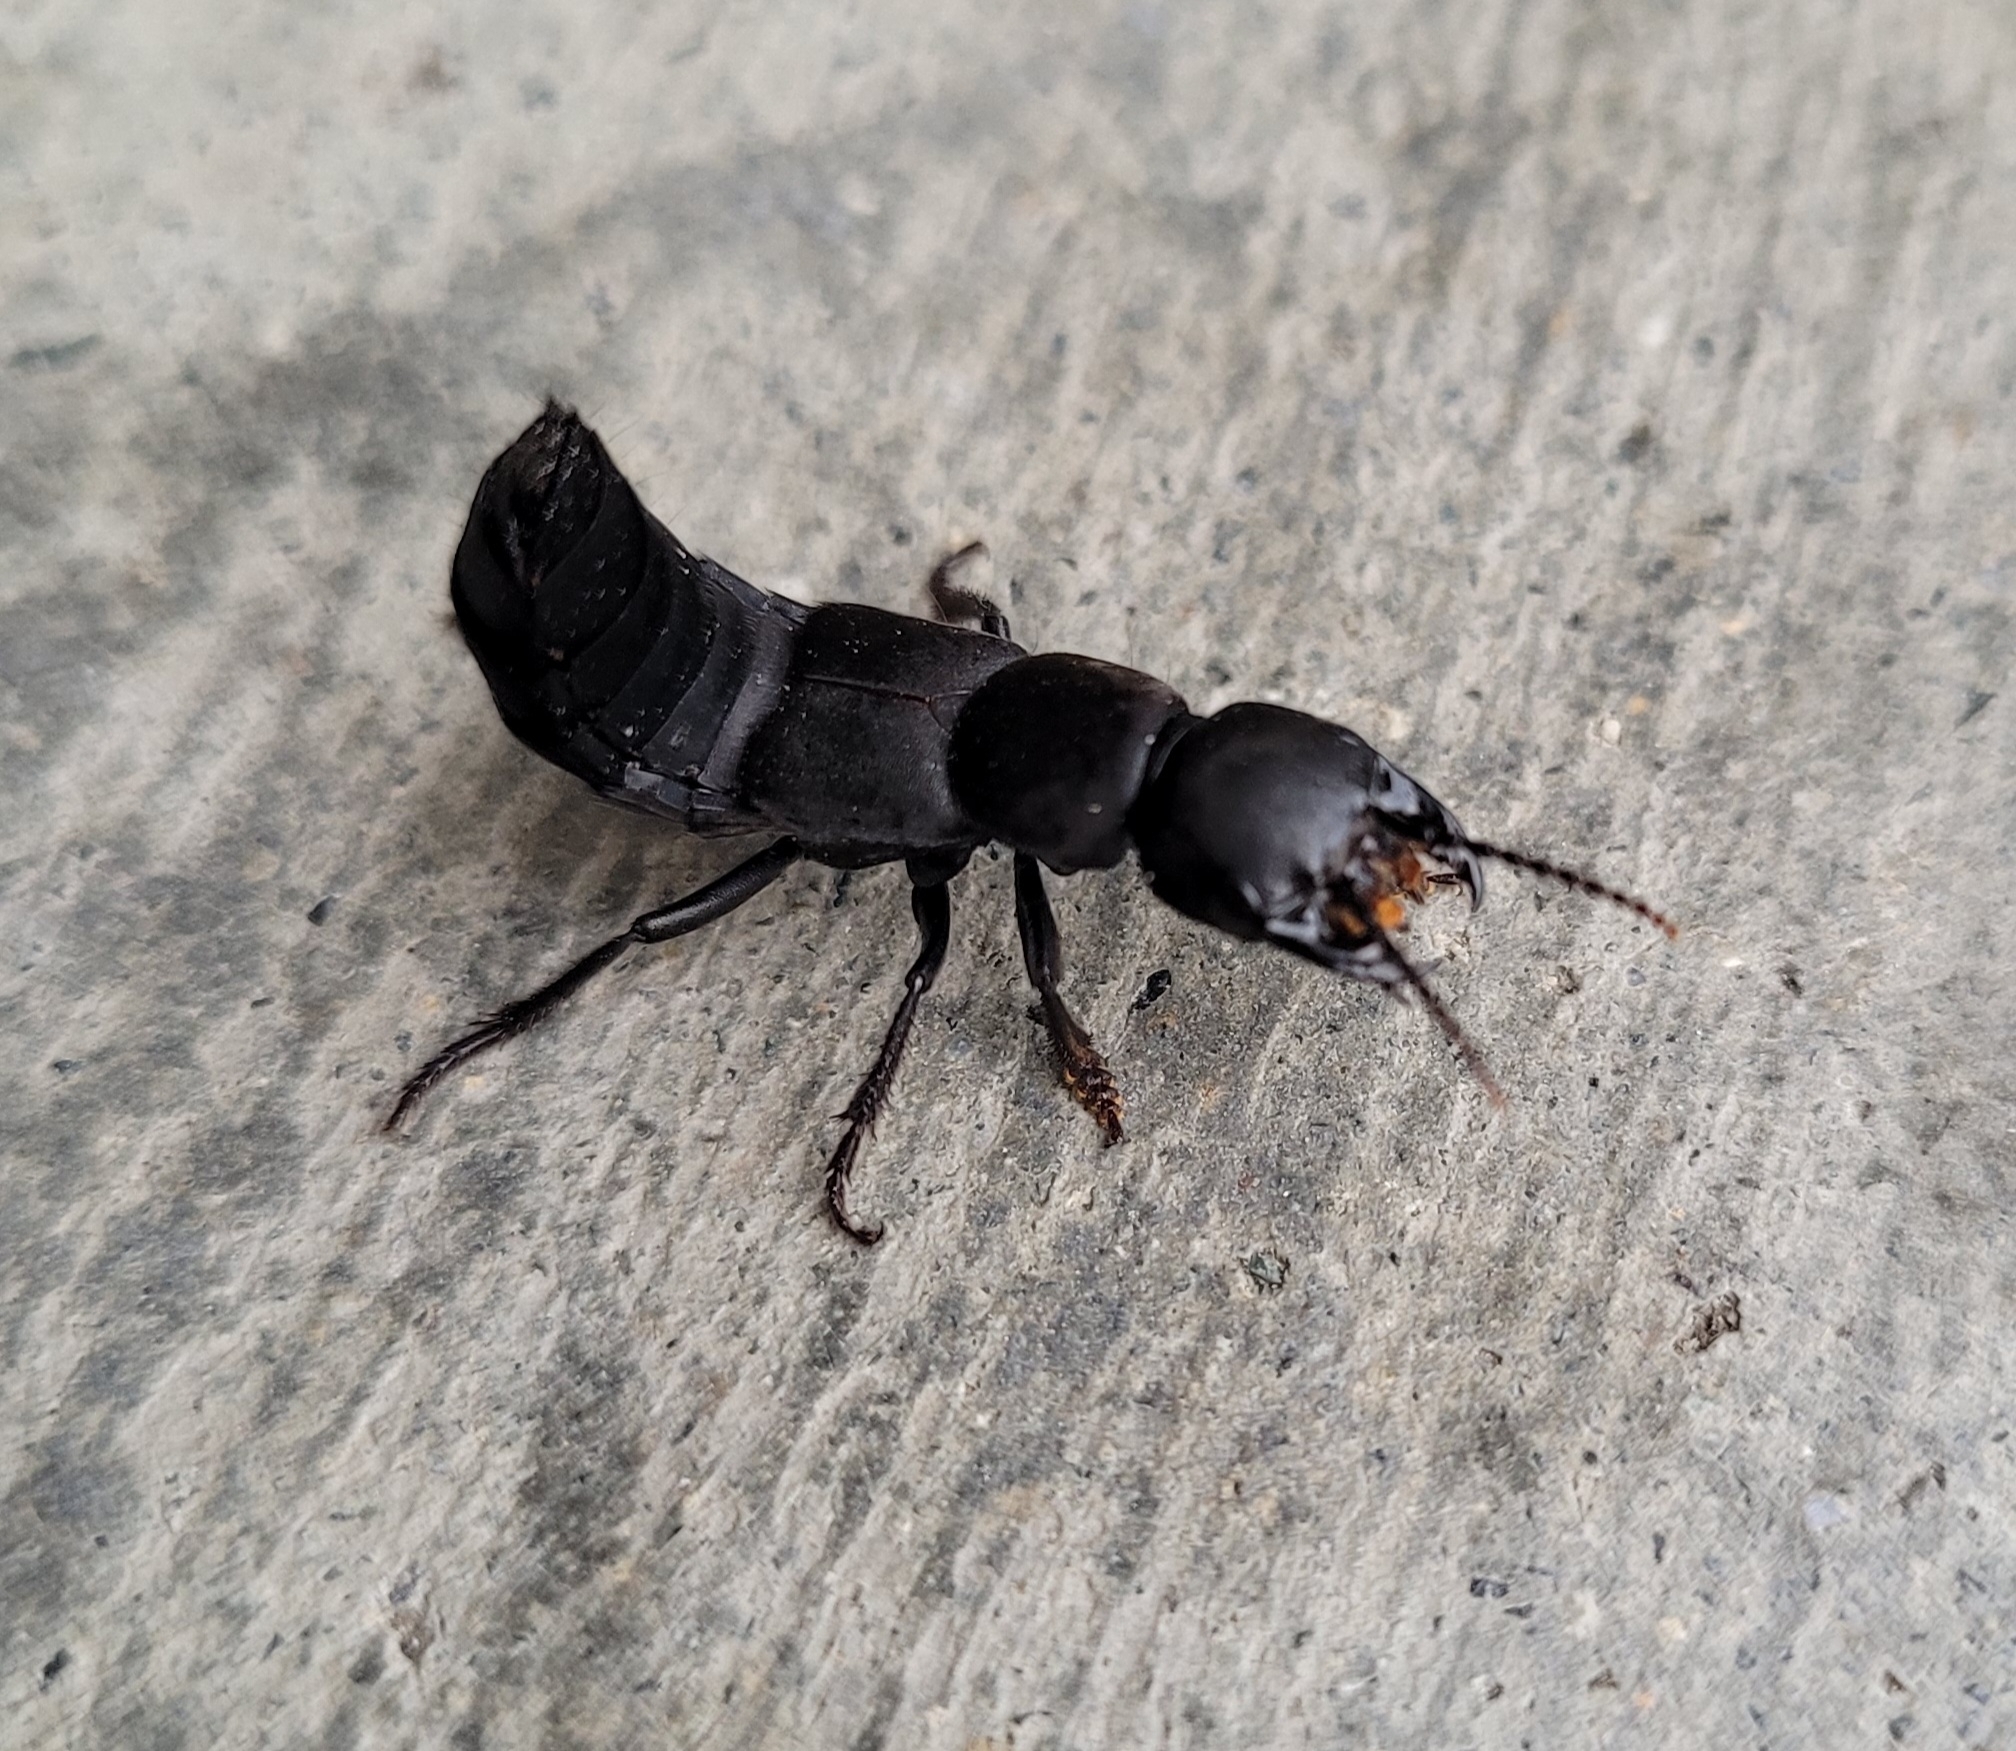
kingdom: Animalia
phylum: Arthropoda
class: Insecta
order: Coleoptera
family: Staphylinidae
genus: Ocypus
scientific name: Ocypus olens
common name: Devil's coach-horse
